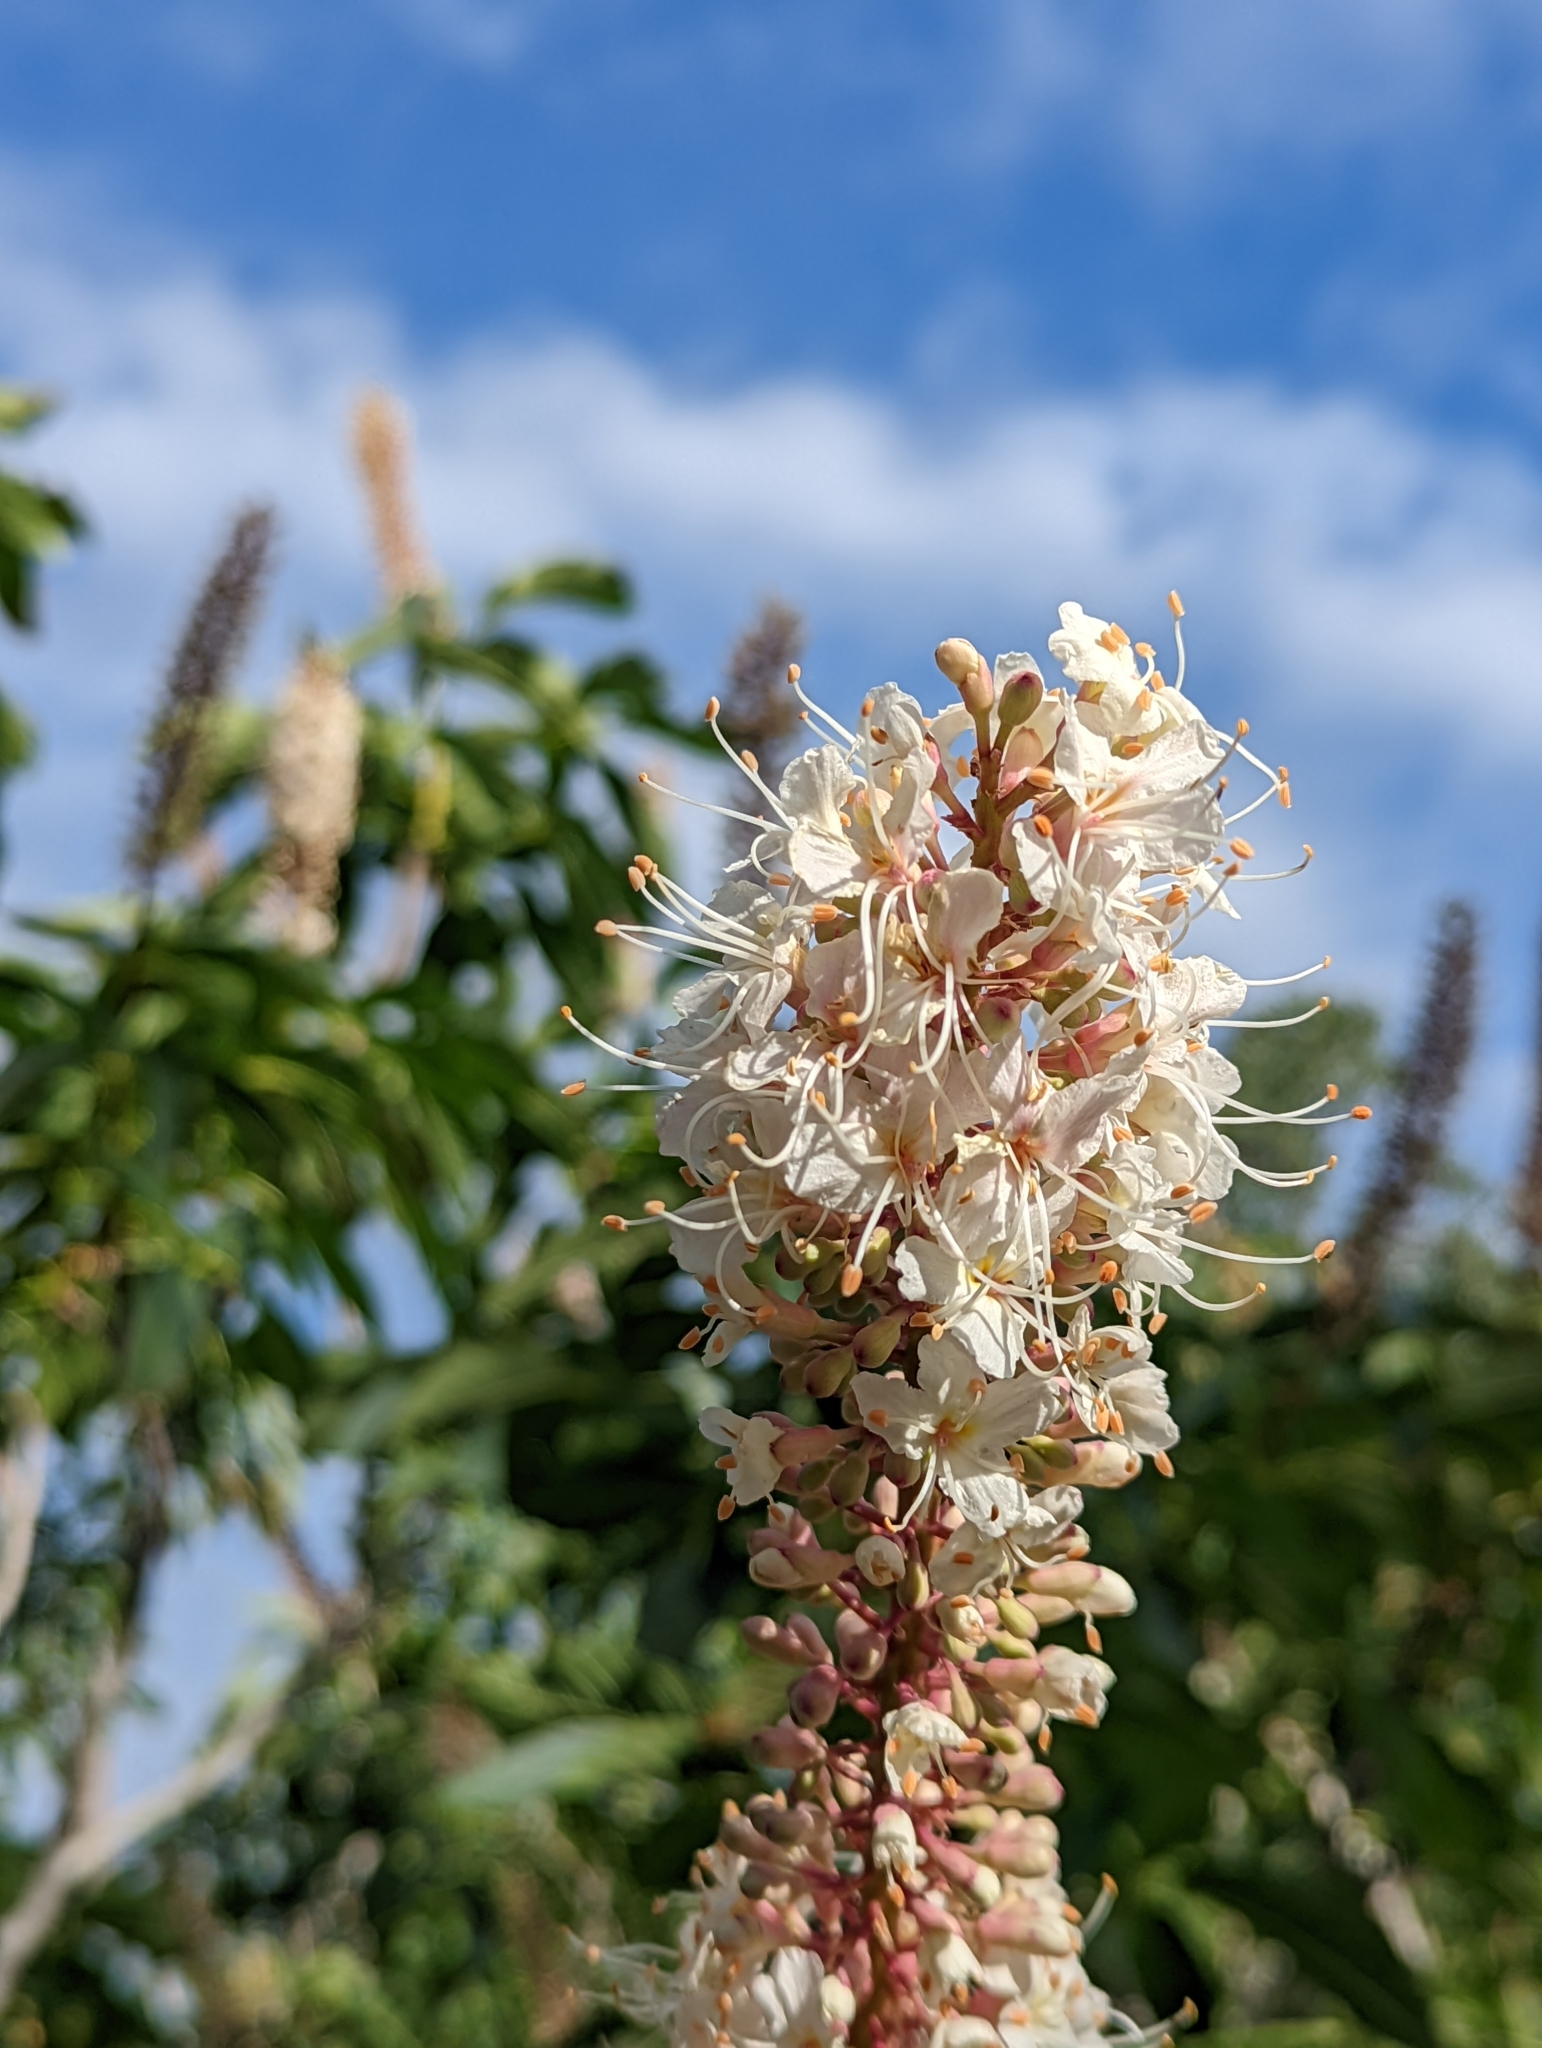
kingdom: Plantae
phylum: Tracheophyta
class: Magnoliopsida
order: Sapindales
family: Sapindaceae
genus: Aesculus
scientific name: Aesculus californica
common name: California buckeye
